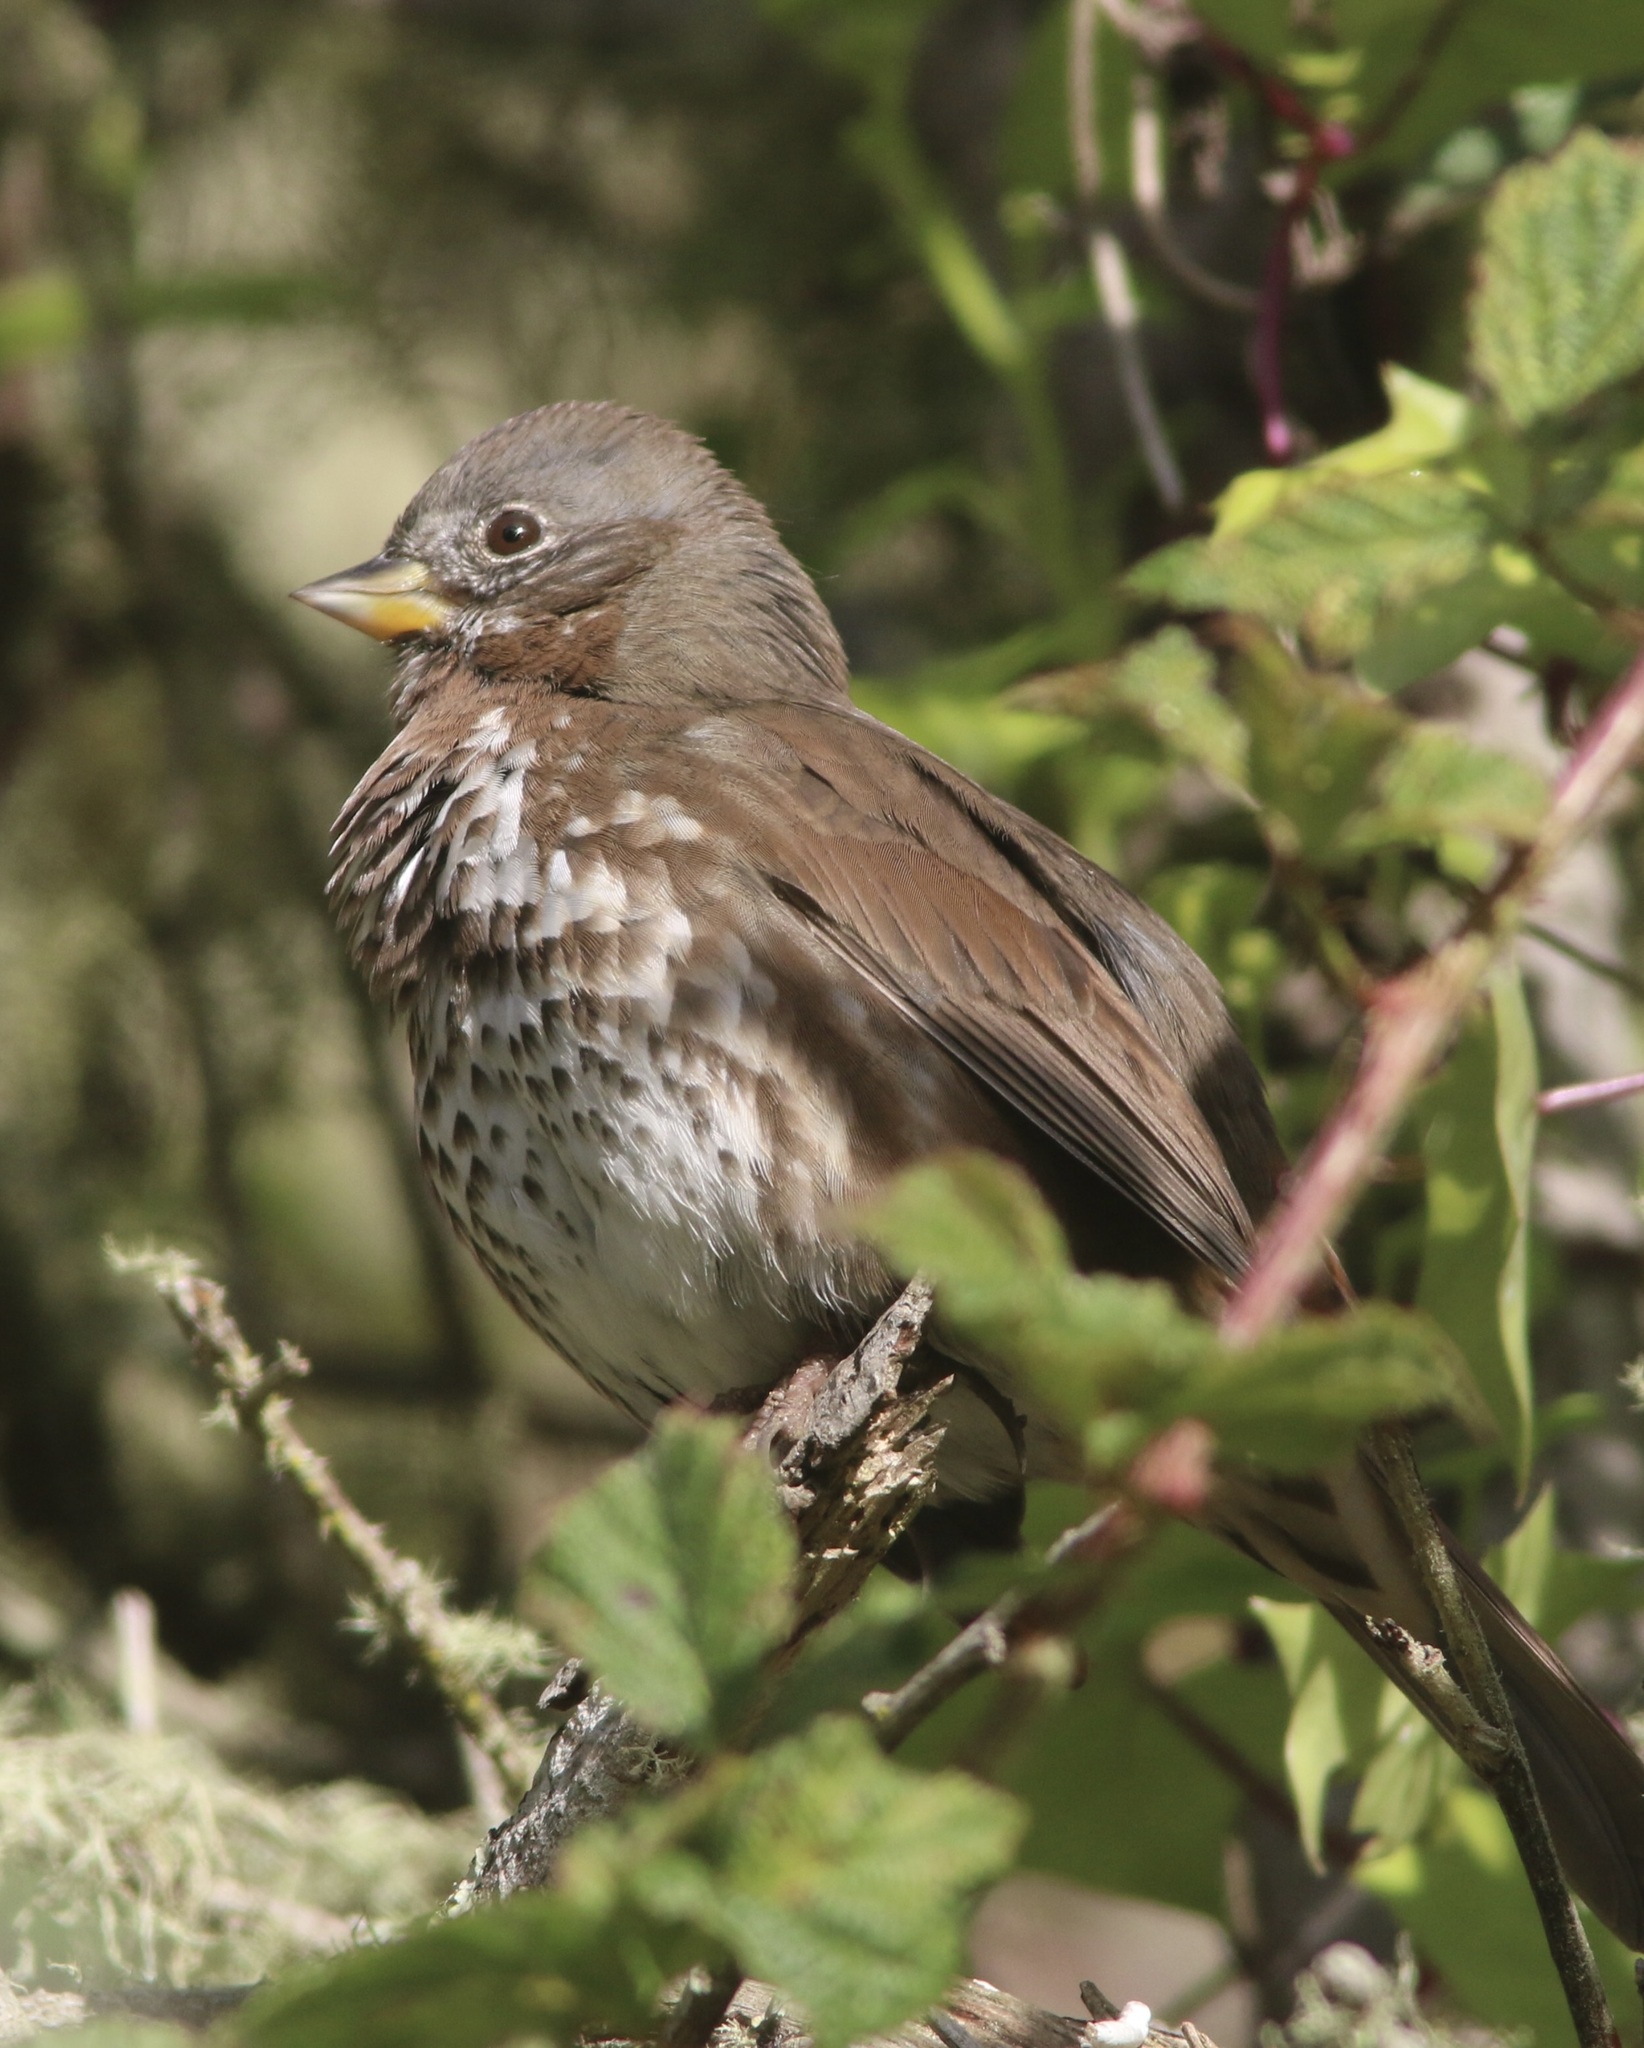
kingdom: Animalia
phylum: Chordata
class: Aves
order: Passeriformes
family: Passerellidae
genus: Passerella
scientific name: Passerella iliaca
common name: Fox sparrow
